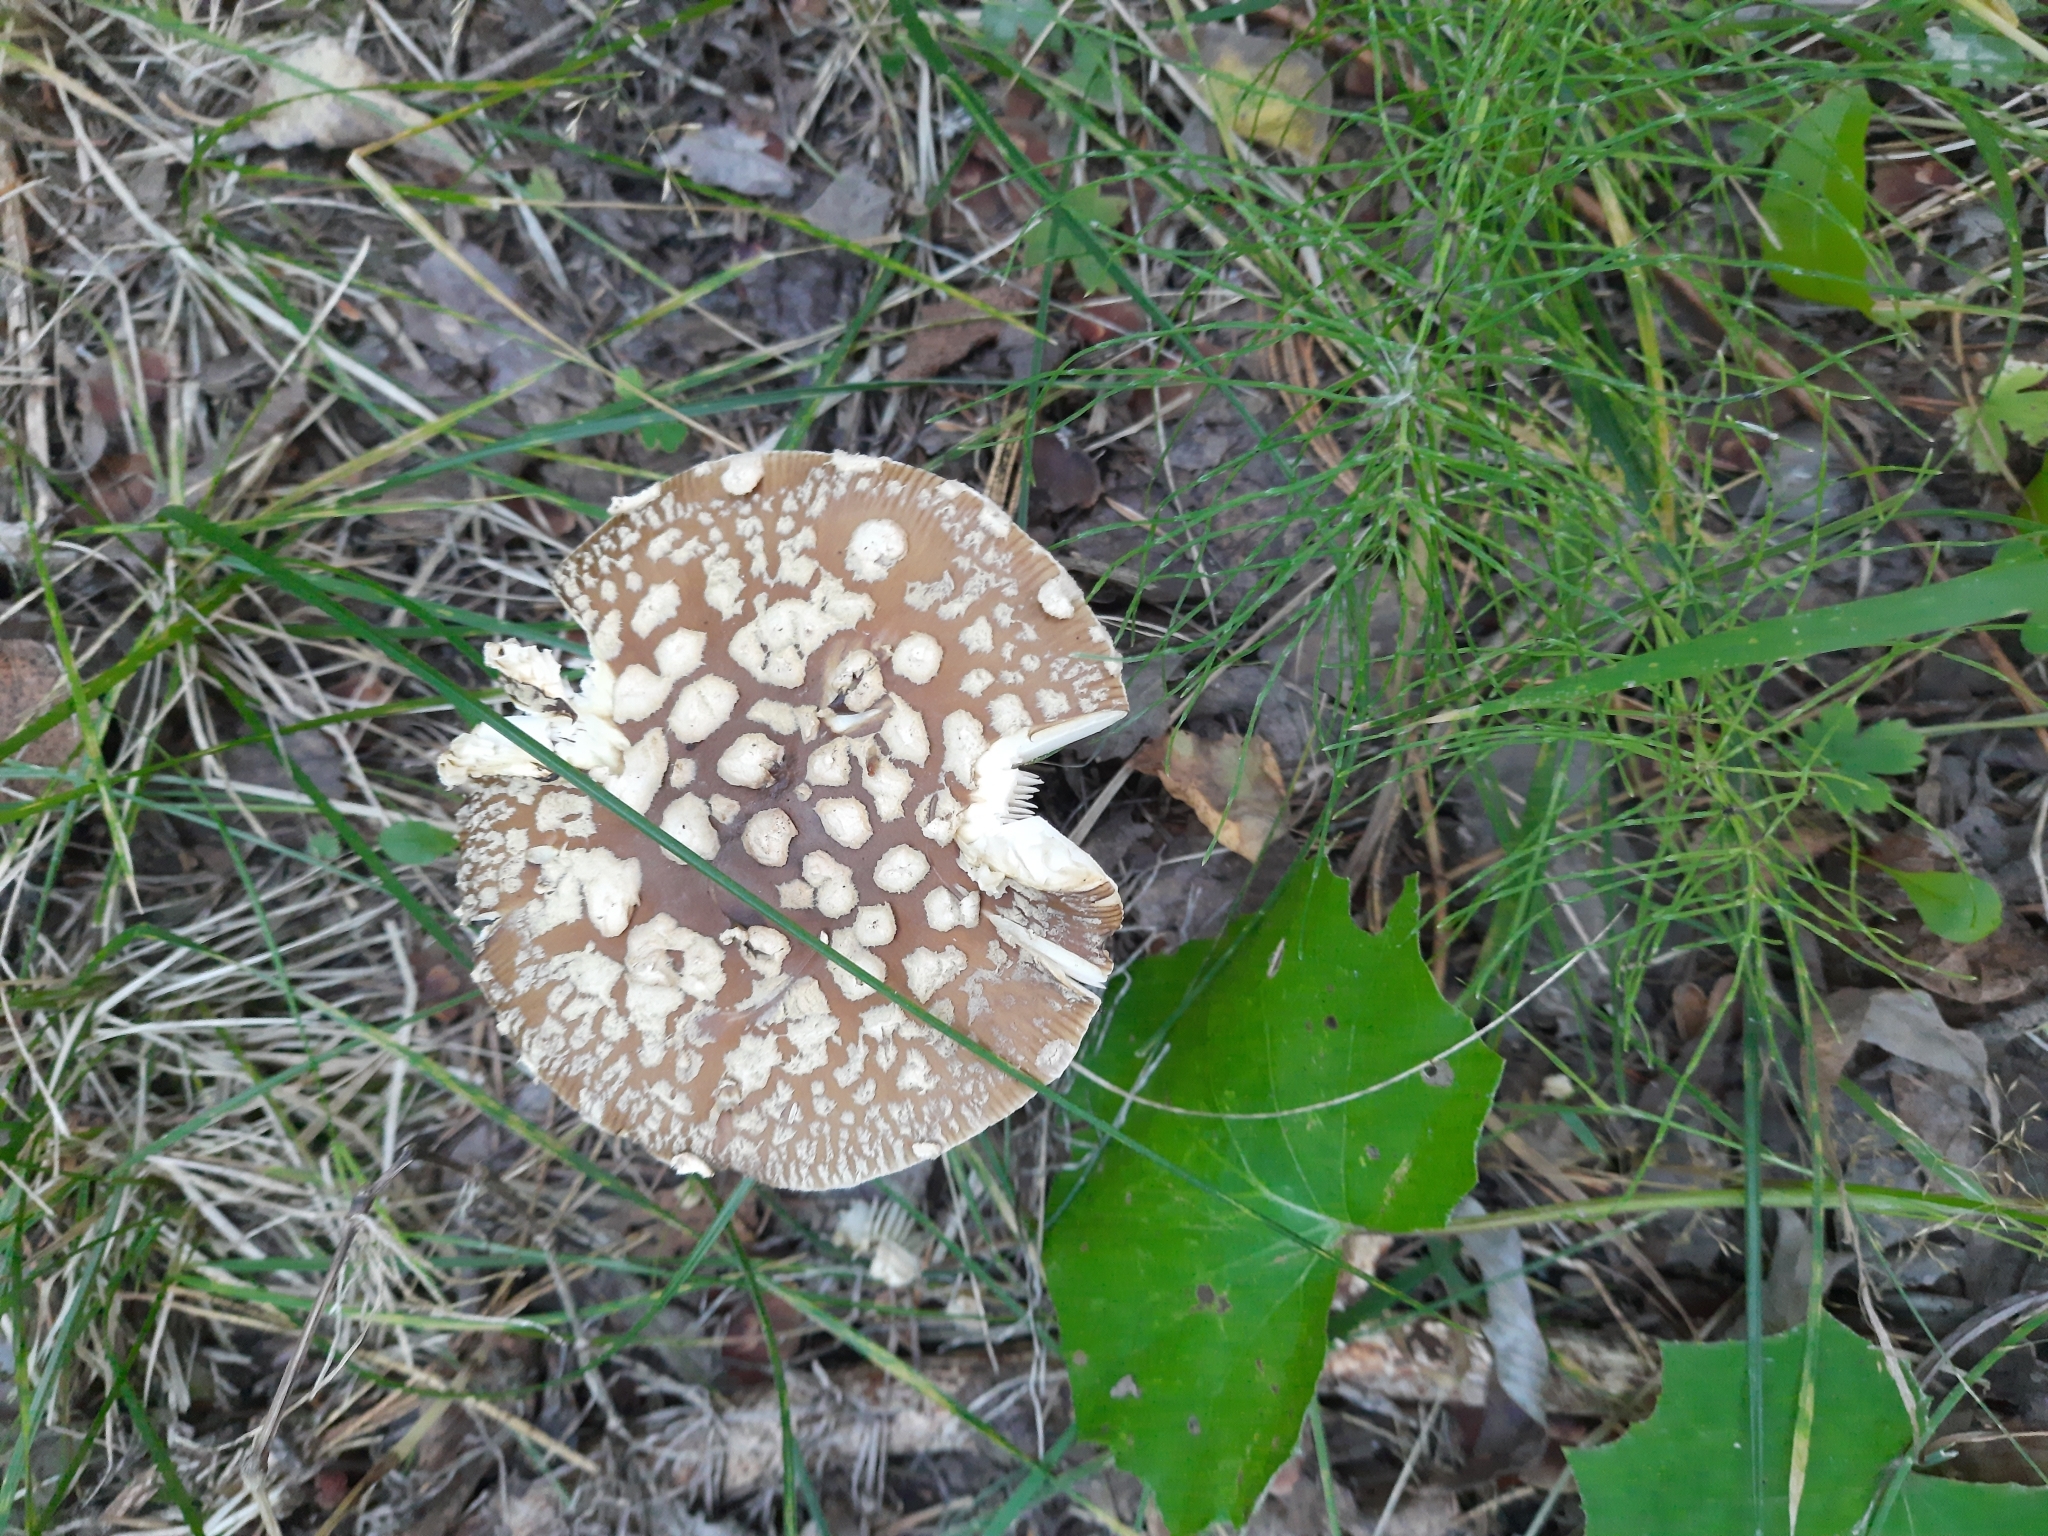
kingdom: Fungi
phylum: Basidiomycota
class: Agaricomycetes
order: Agaricales
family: Amanitaceae
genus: Amanita
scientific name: Amanita pantherina
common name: Panthercap
